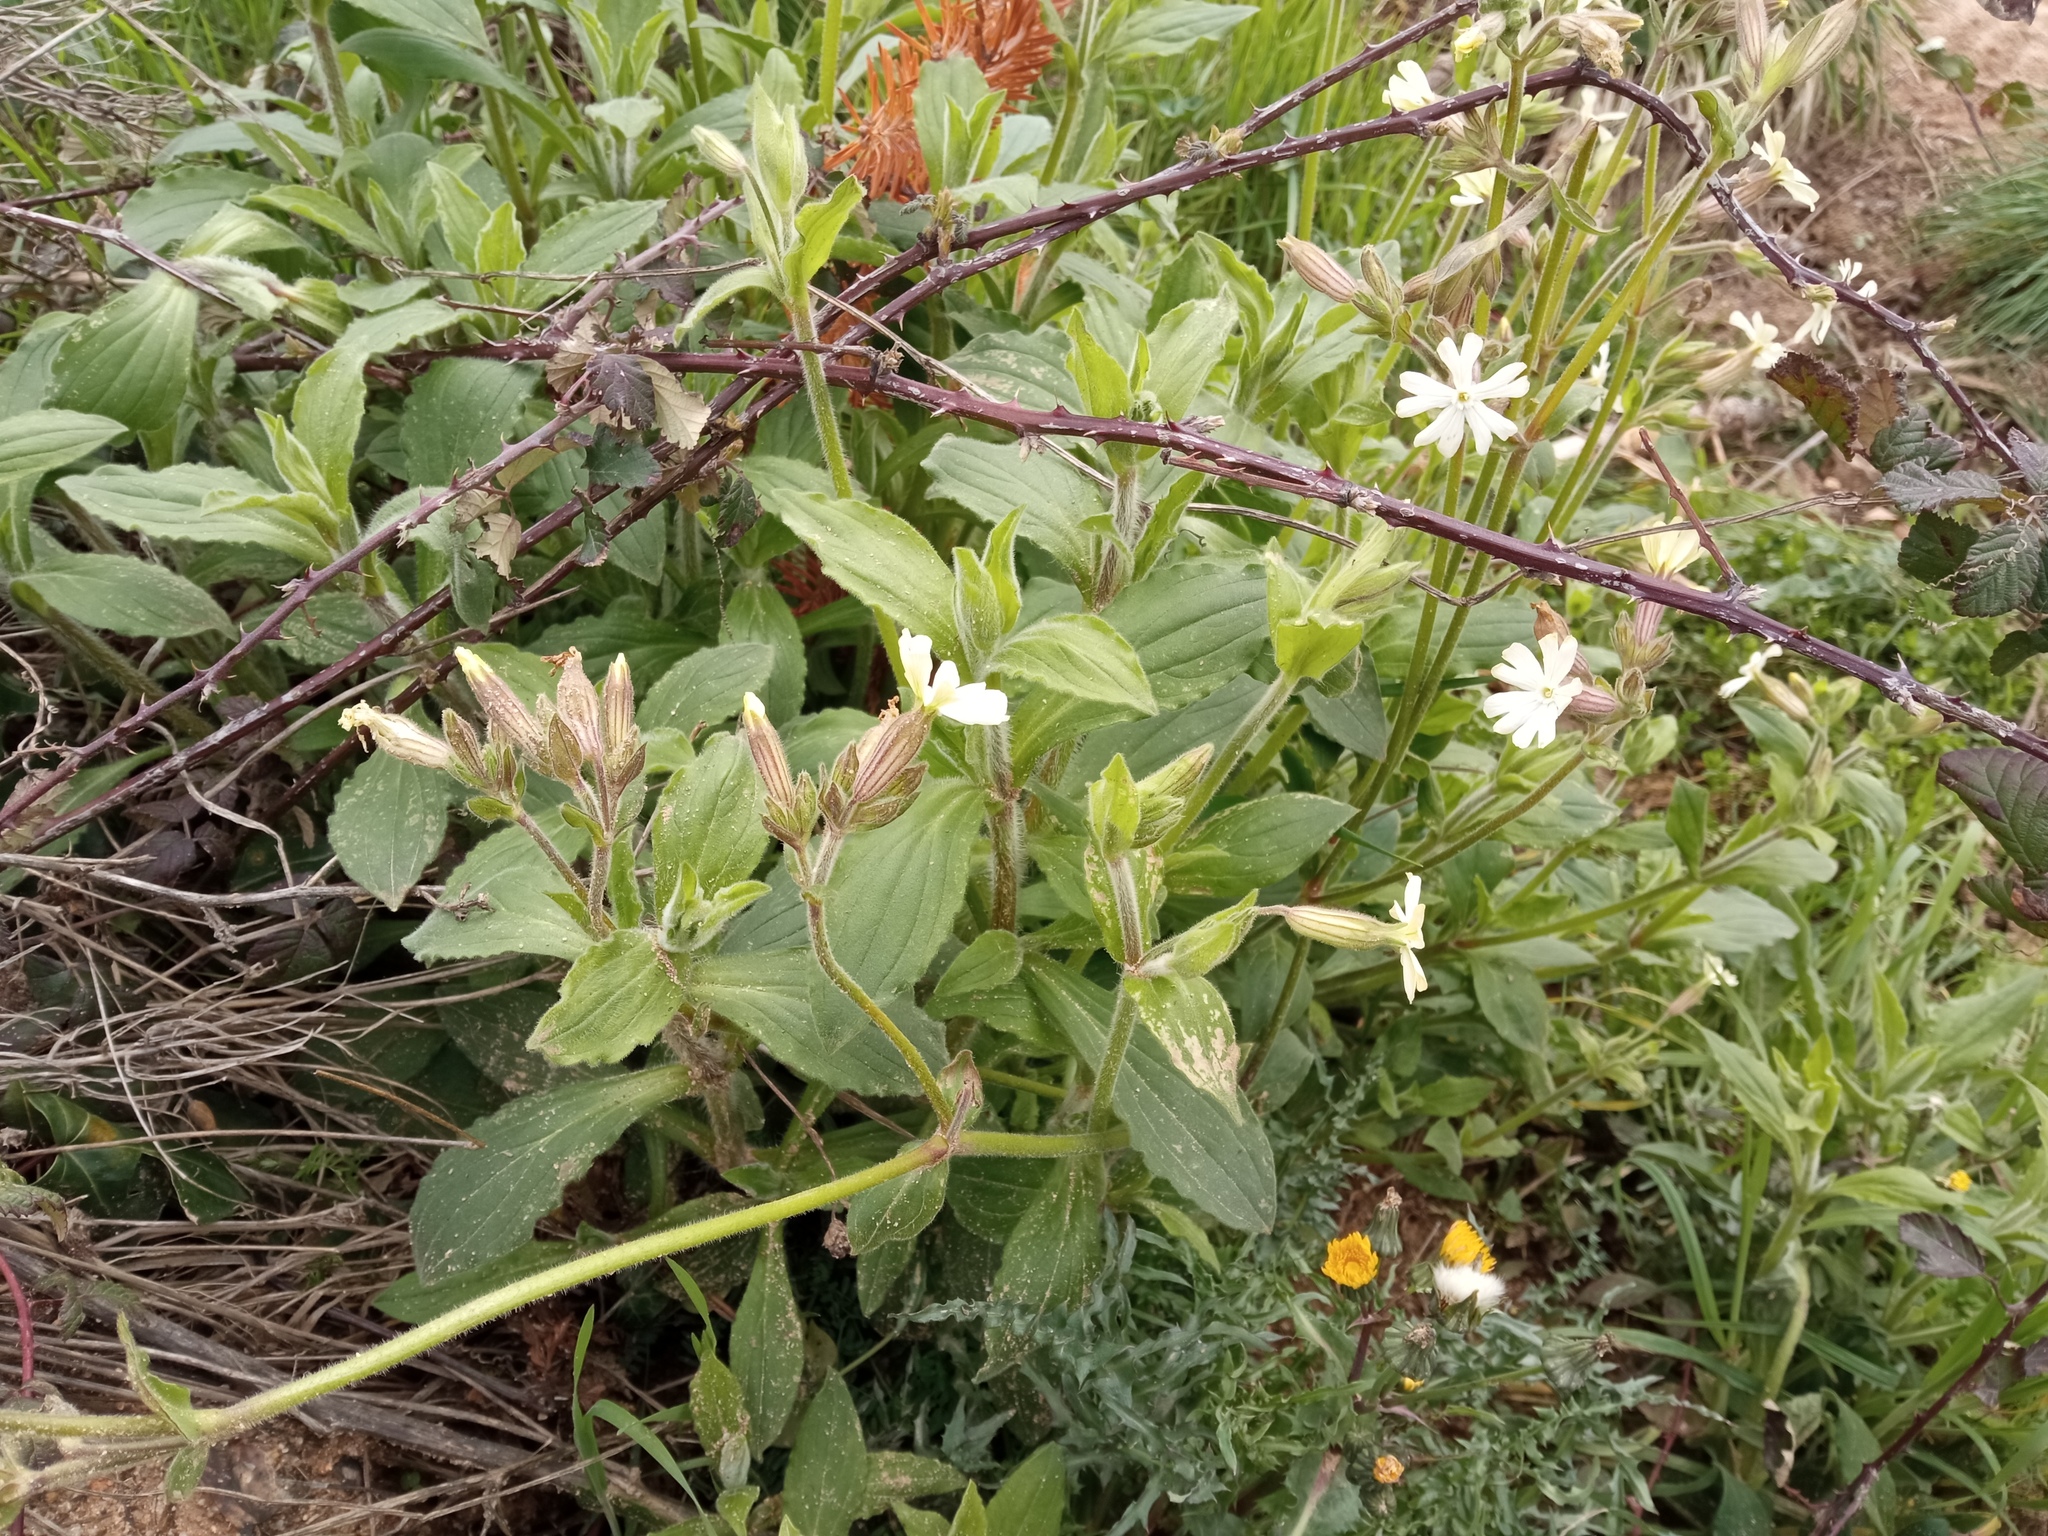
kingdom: Plantae
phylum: Tracheophyta
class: Magnoliopsida
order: Caryophyllales
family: Caryophyllaceae
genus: Silene
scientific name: Silene latifolia
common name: White campion
